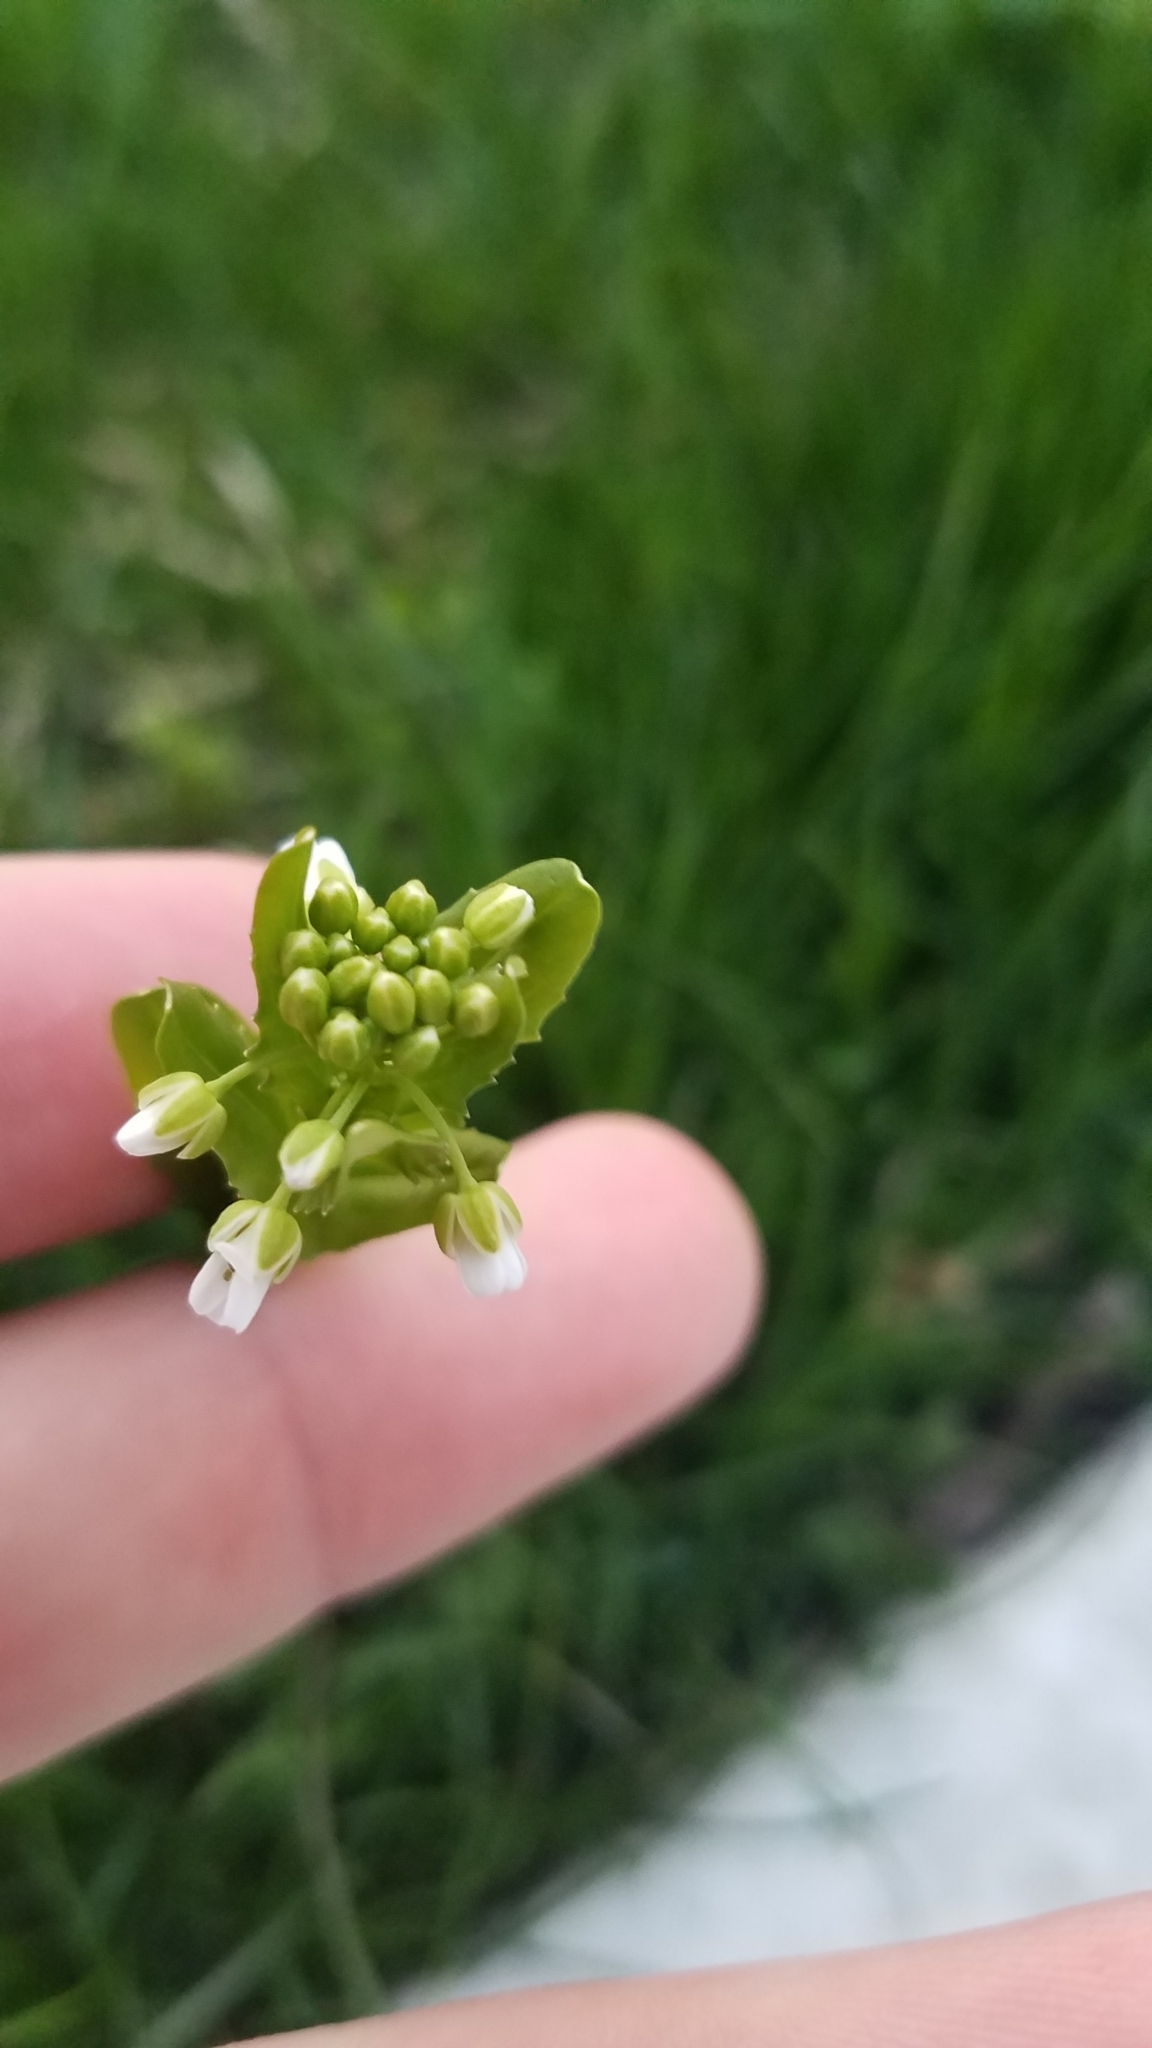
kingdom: Plantae
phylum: Tracheophyta
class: Magnoliopsida
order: Brassicales
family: Brassicaceae
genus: Thlaspi
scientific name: Thlaspi arvense
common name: Field pennycress
